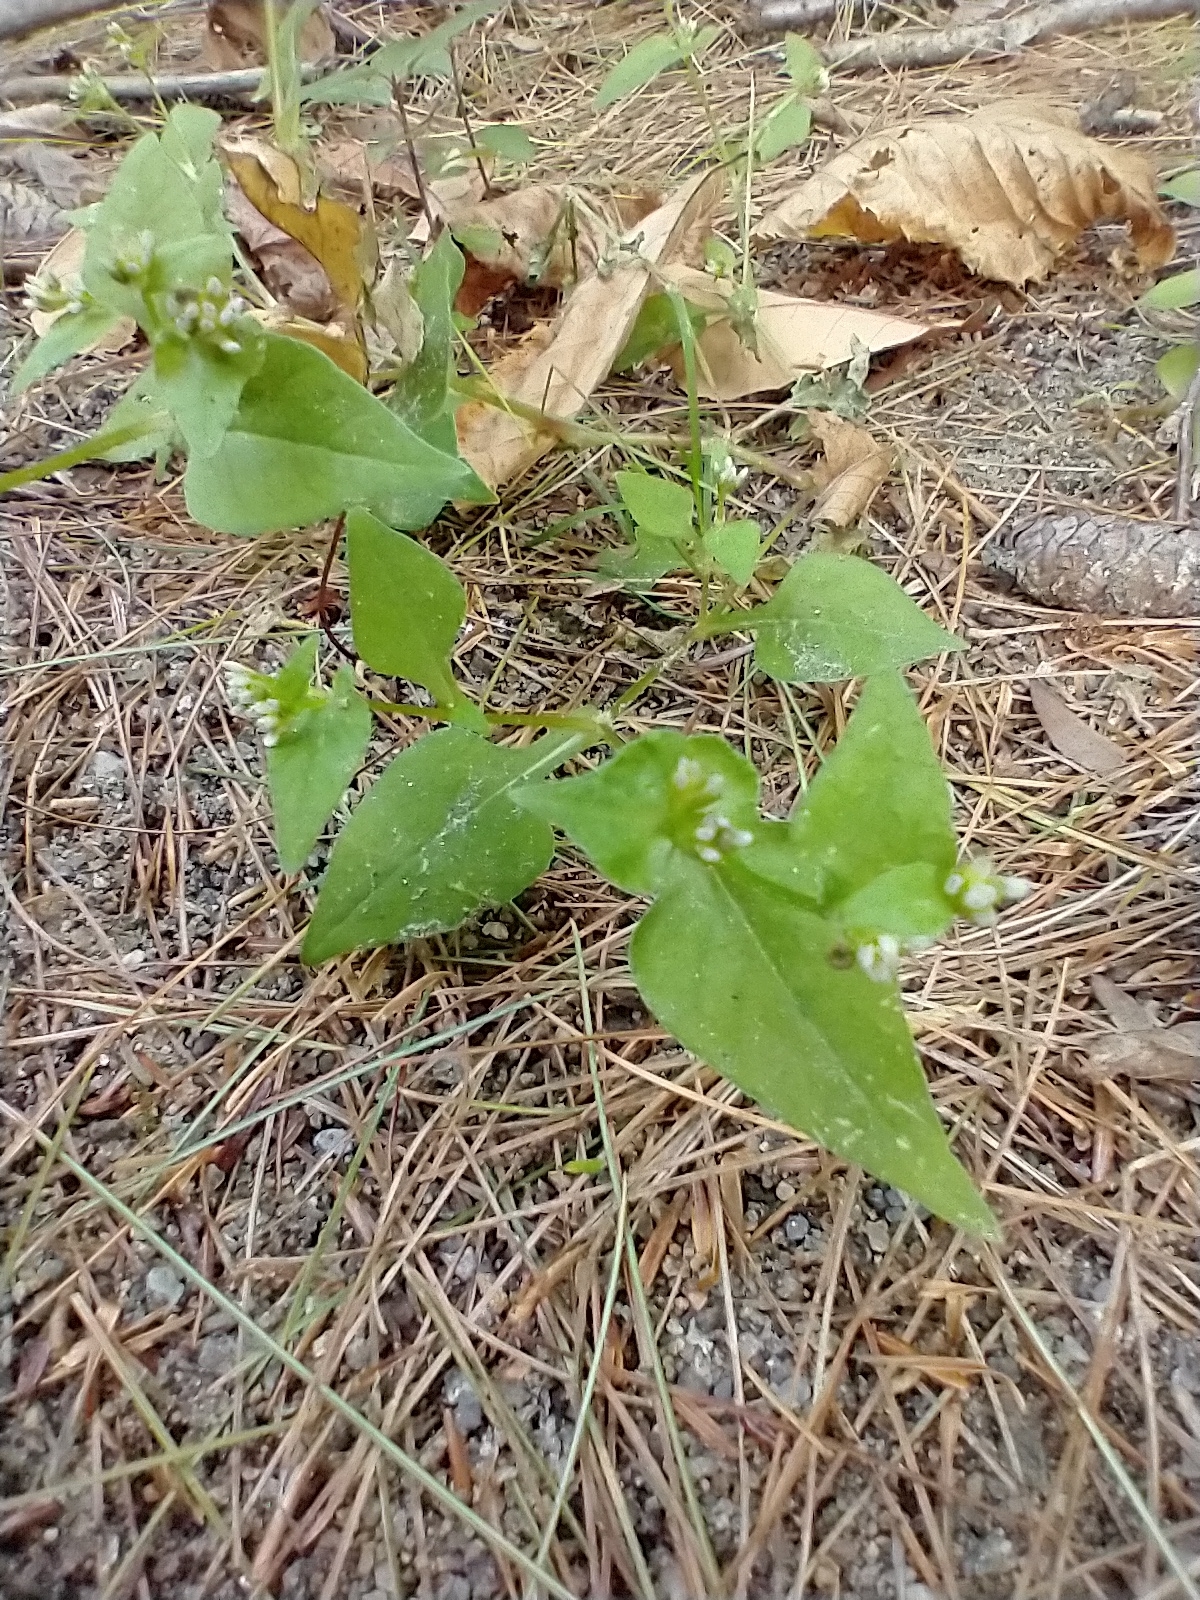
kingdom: Plantae
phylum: Tracheophyta
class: Magnoliopsida
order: Caryophyllales
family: Polygonaceae
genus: Persicaria
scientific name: Persicaria nepalensis
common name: Nepal persicaria
